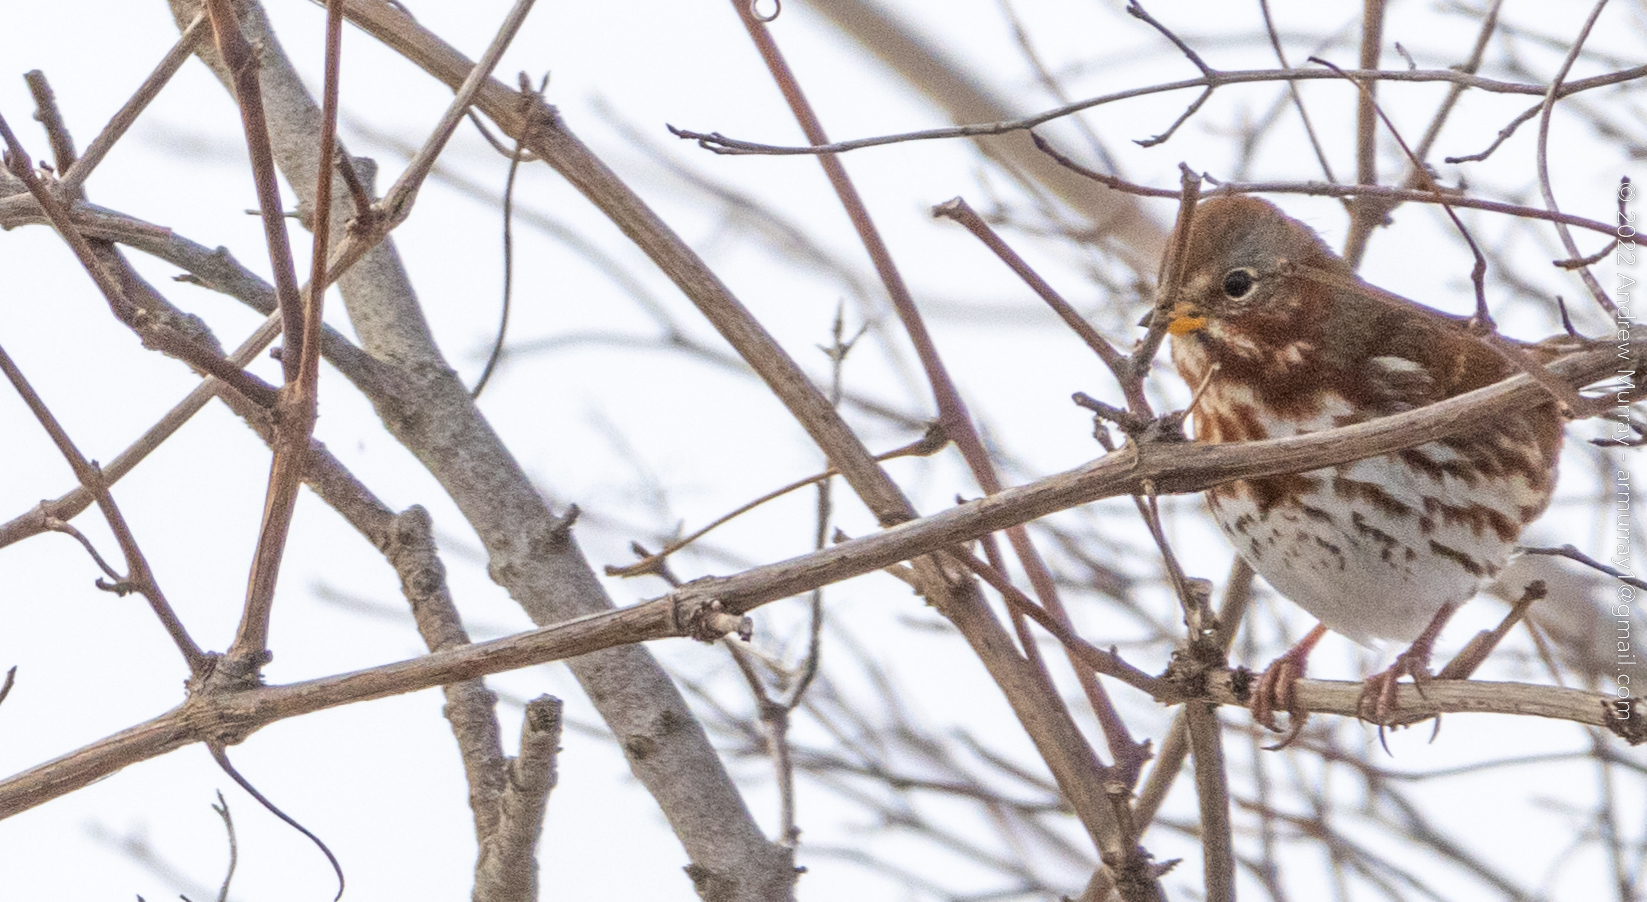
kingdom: Animalia
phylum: Chordata
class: Aves
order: Passeriformes
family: Passerellidae
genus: Passerella
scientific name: Passerella iliaca
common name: Fox sparrow
